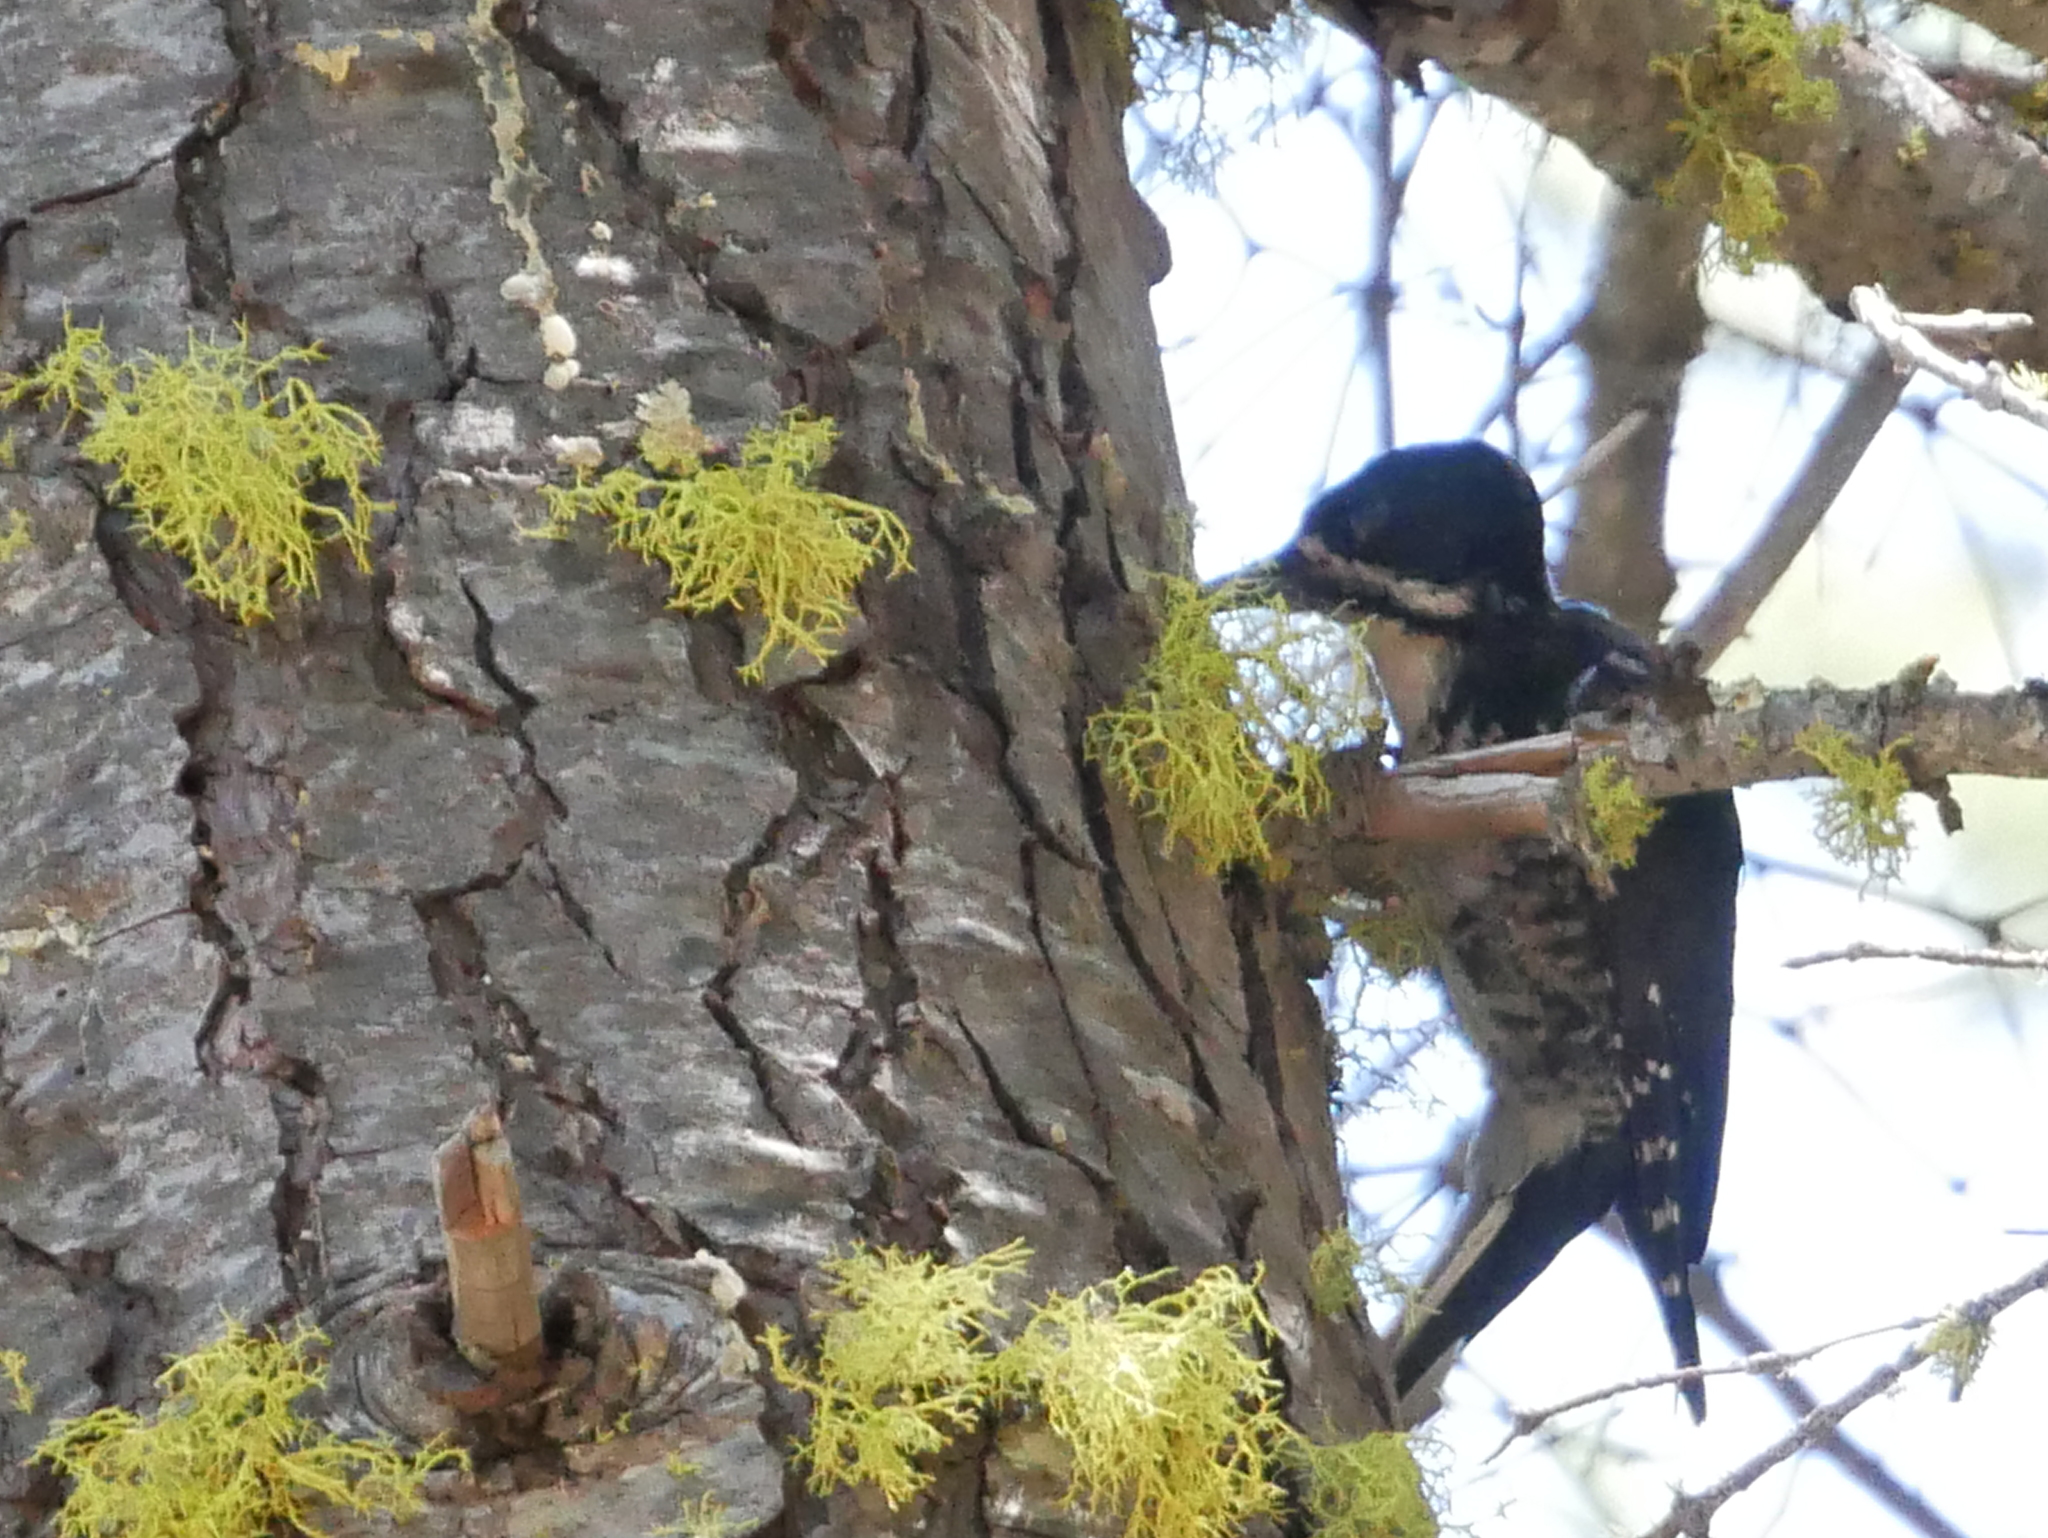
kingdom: Animalia
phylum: Chordata
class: Aves
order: Piciformes
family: Picidae
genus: Picoides
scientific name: Picoides arcticus
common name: Black-backed woodpecker
